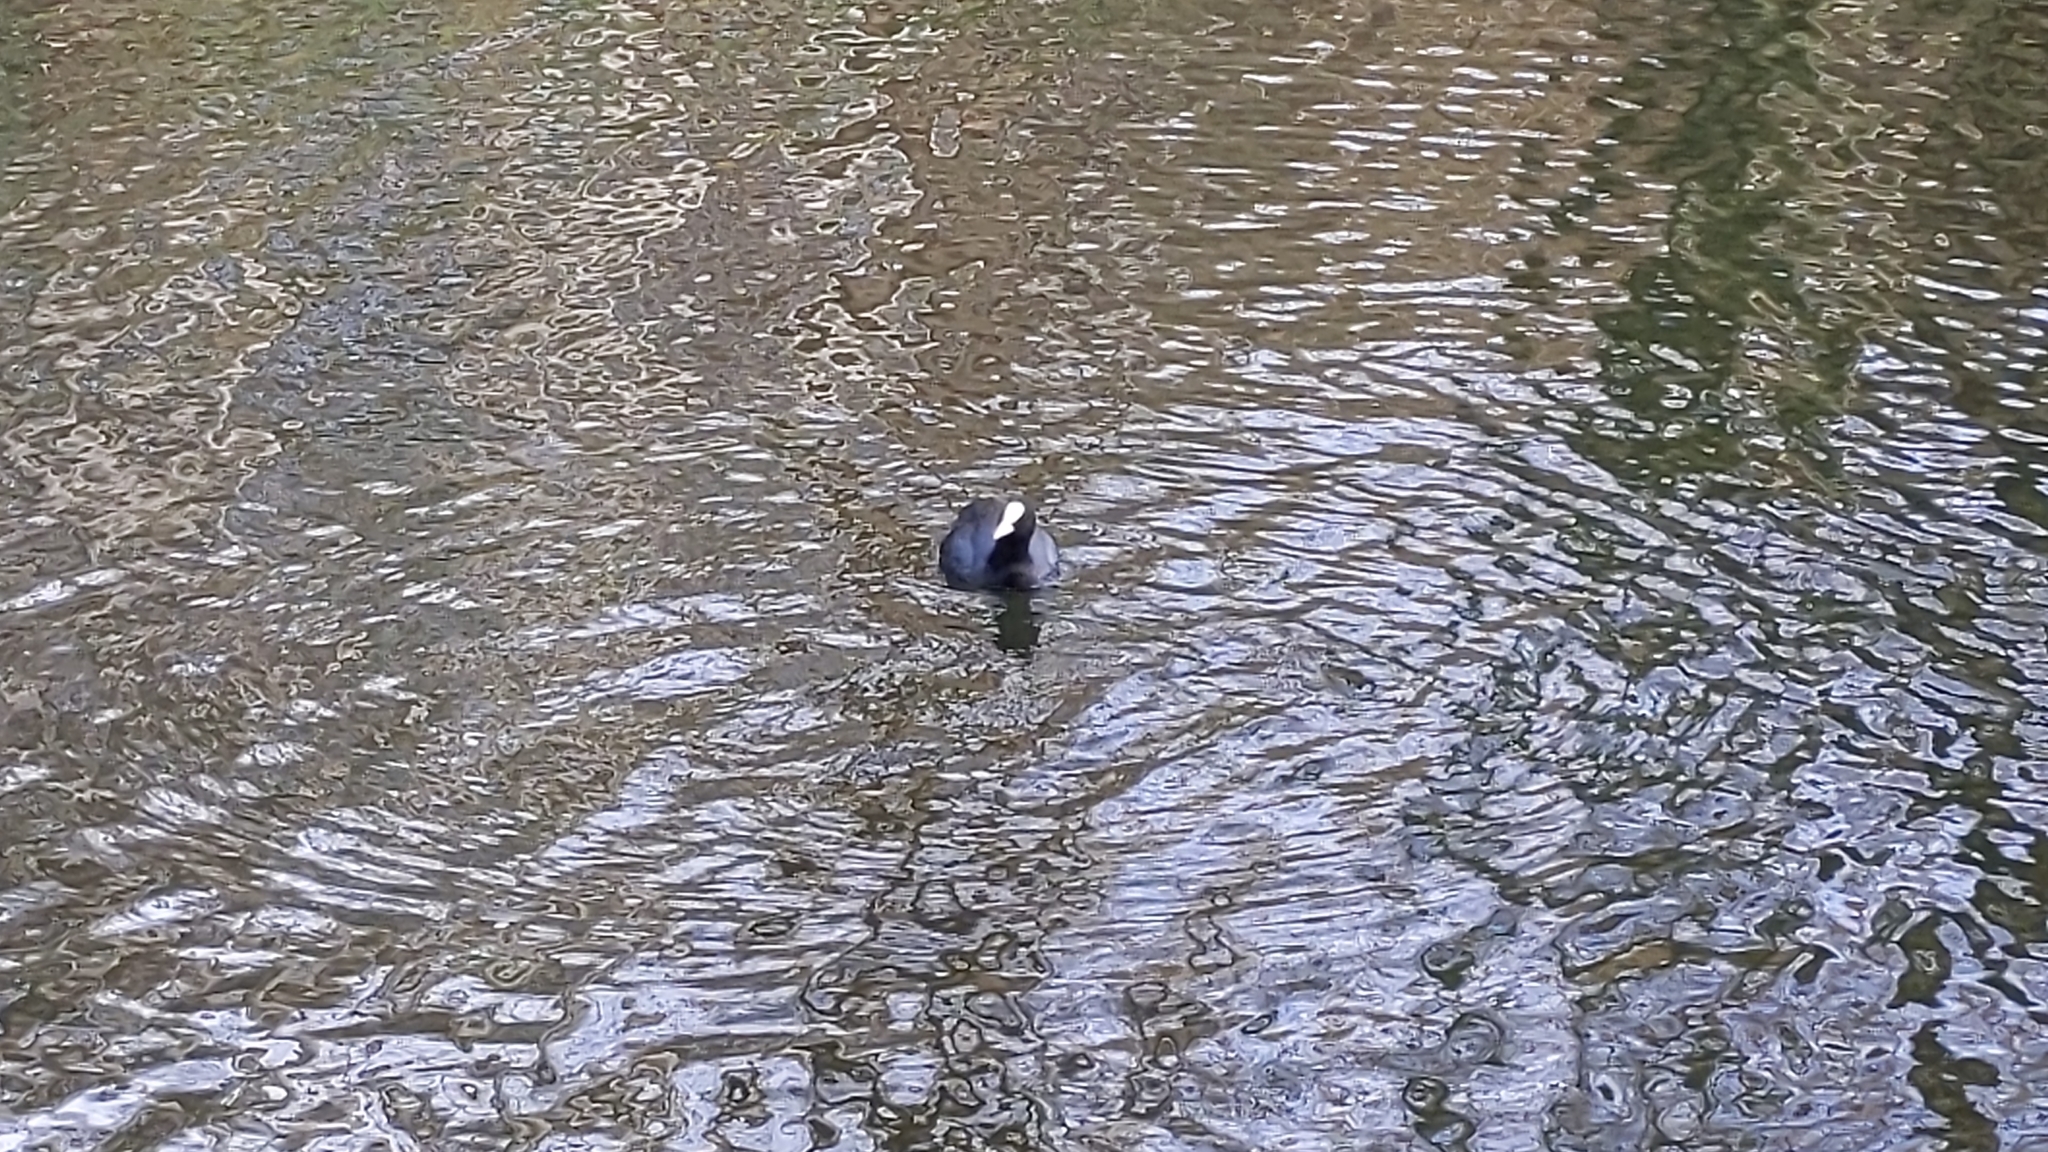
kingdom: Animalia
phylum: Chordata
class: Aves
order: Gruiformes
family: Rallidae
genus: Fulica
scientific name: Fulica atra
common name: Eurasian coot
